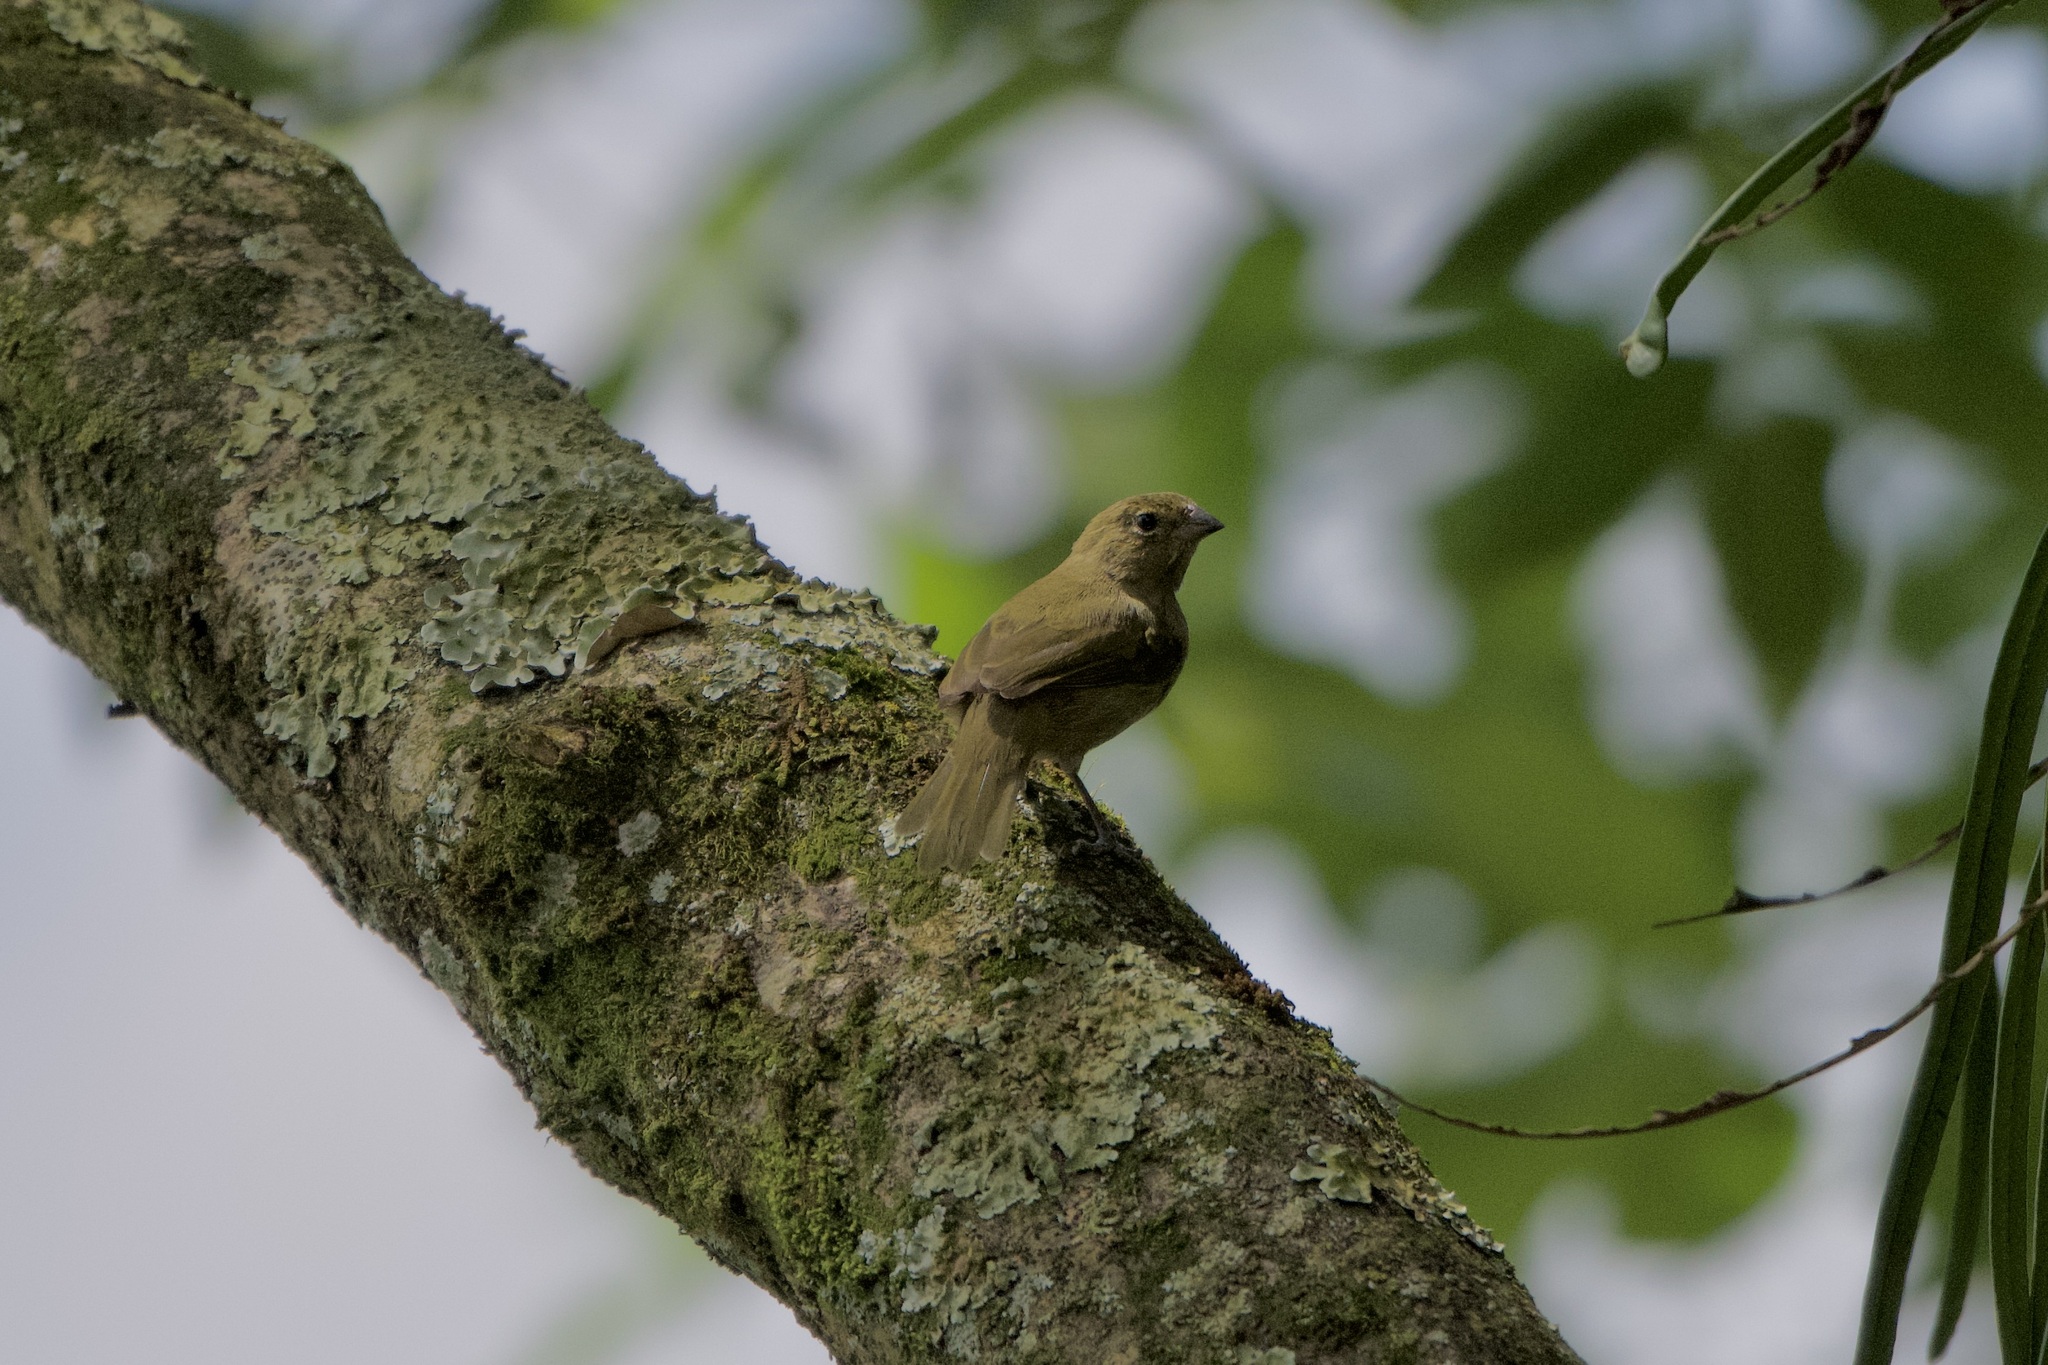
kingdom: Animalia
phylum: Chordata
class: Aves
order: Passeriformes
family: Thraupidae
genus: Tiaris
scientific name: Tiaris olivaceus
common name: Yellow-faced grassquit
